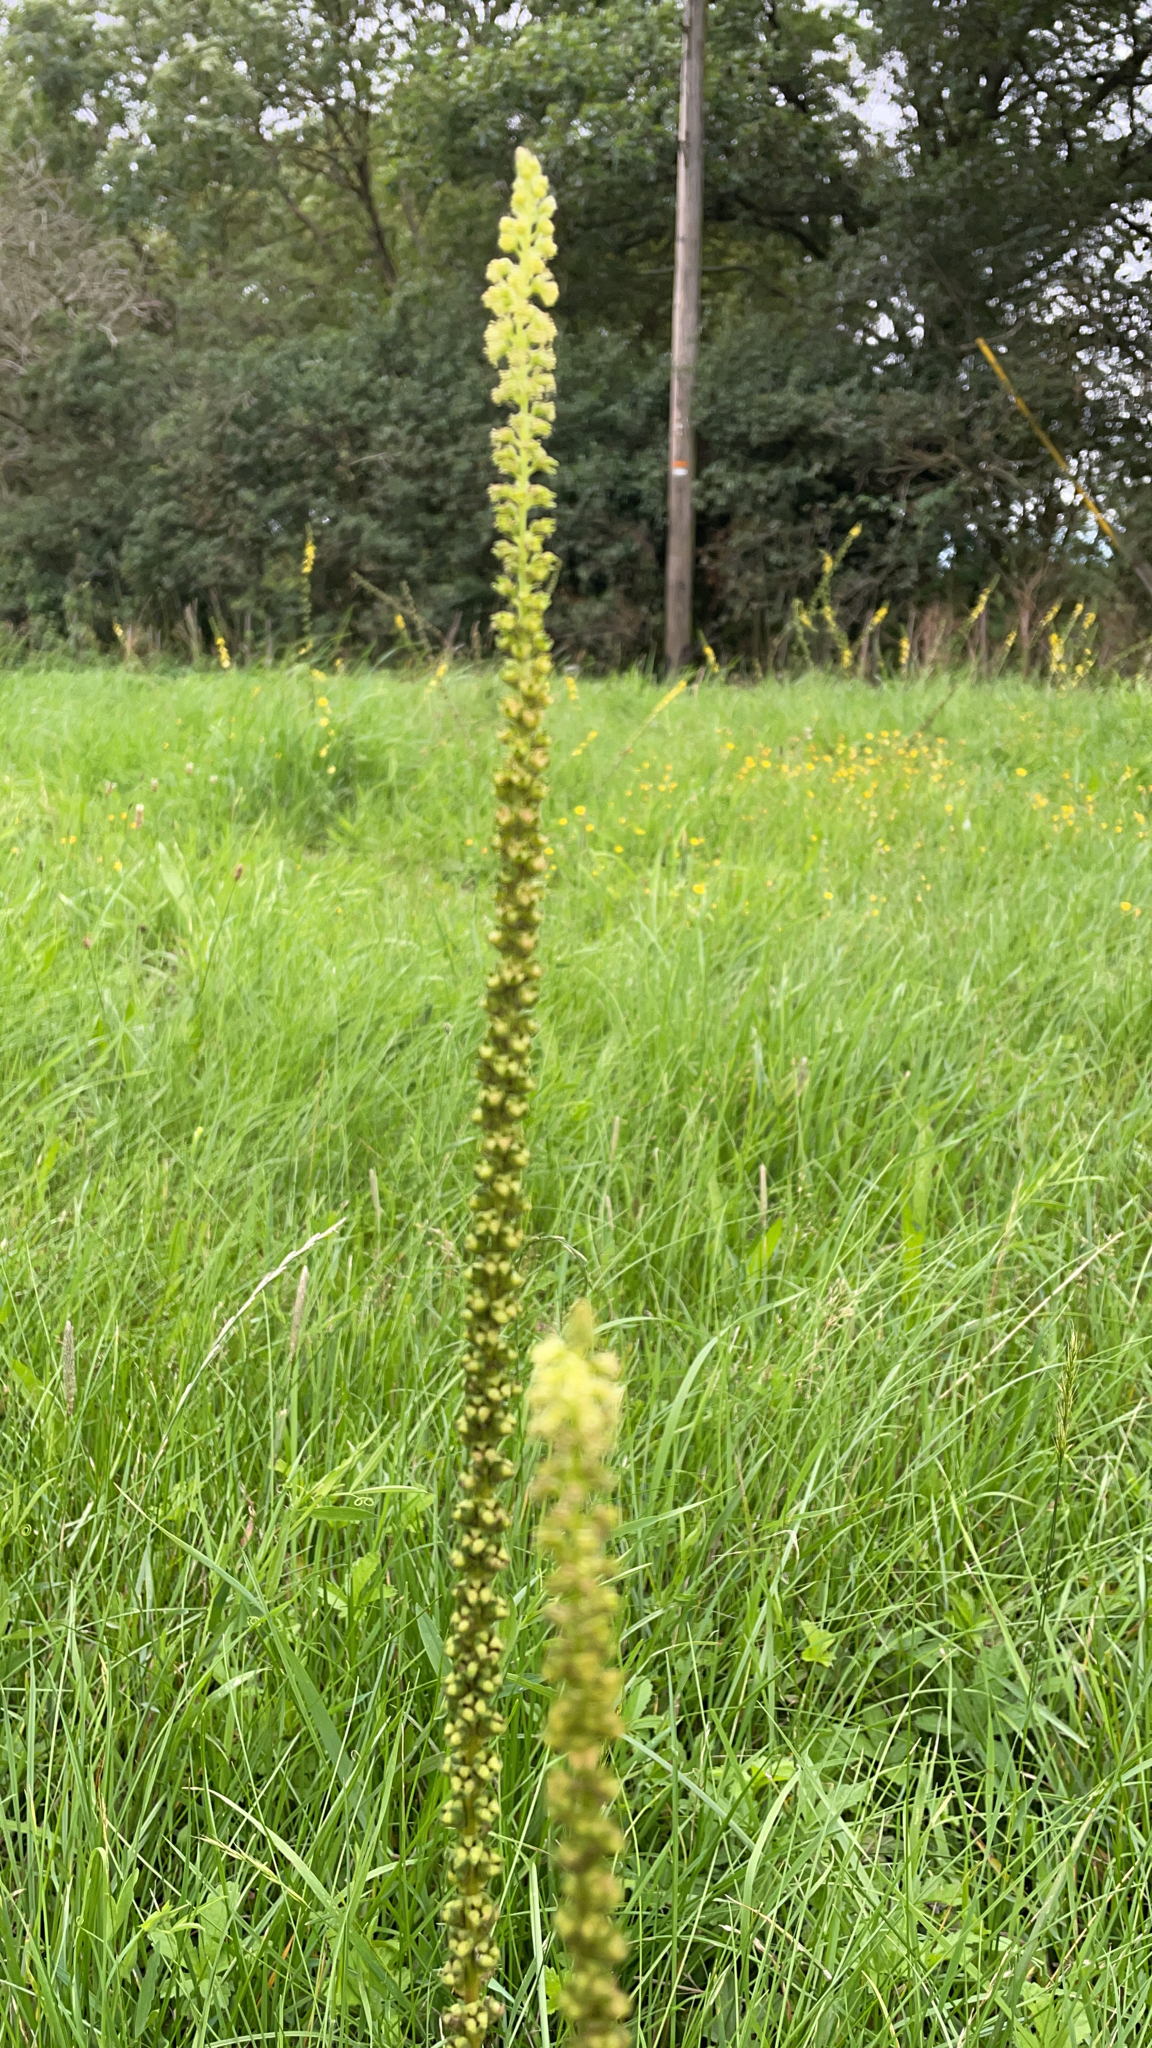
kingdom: Plantae
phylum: Tracheophyta
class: Magnoliopsida
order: Brassicales
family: Resedaceae
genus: Reseda
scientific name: Reseda luteola
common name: Weld
